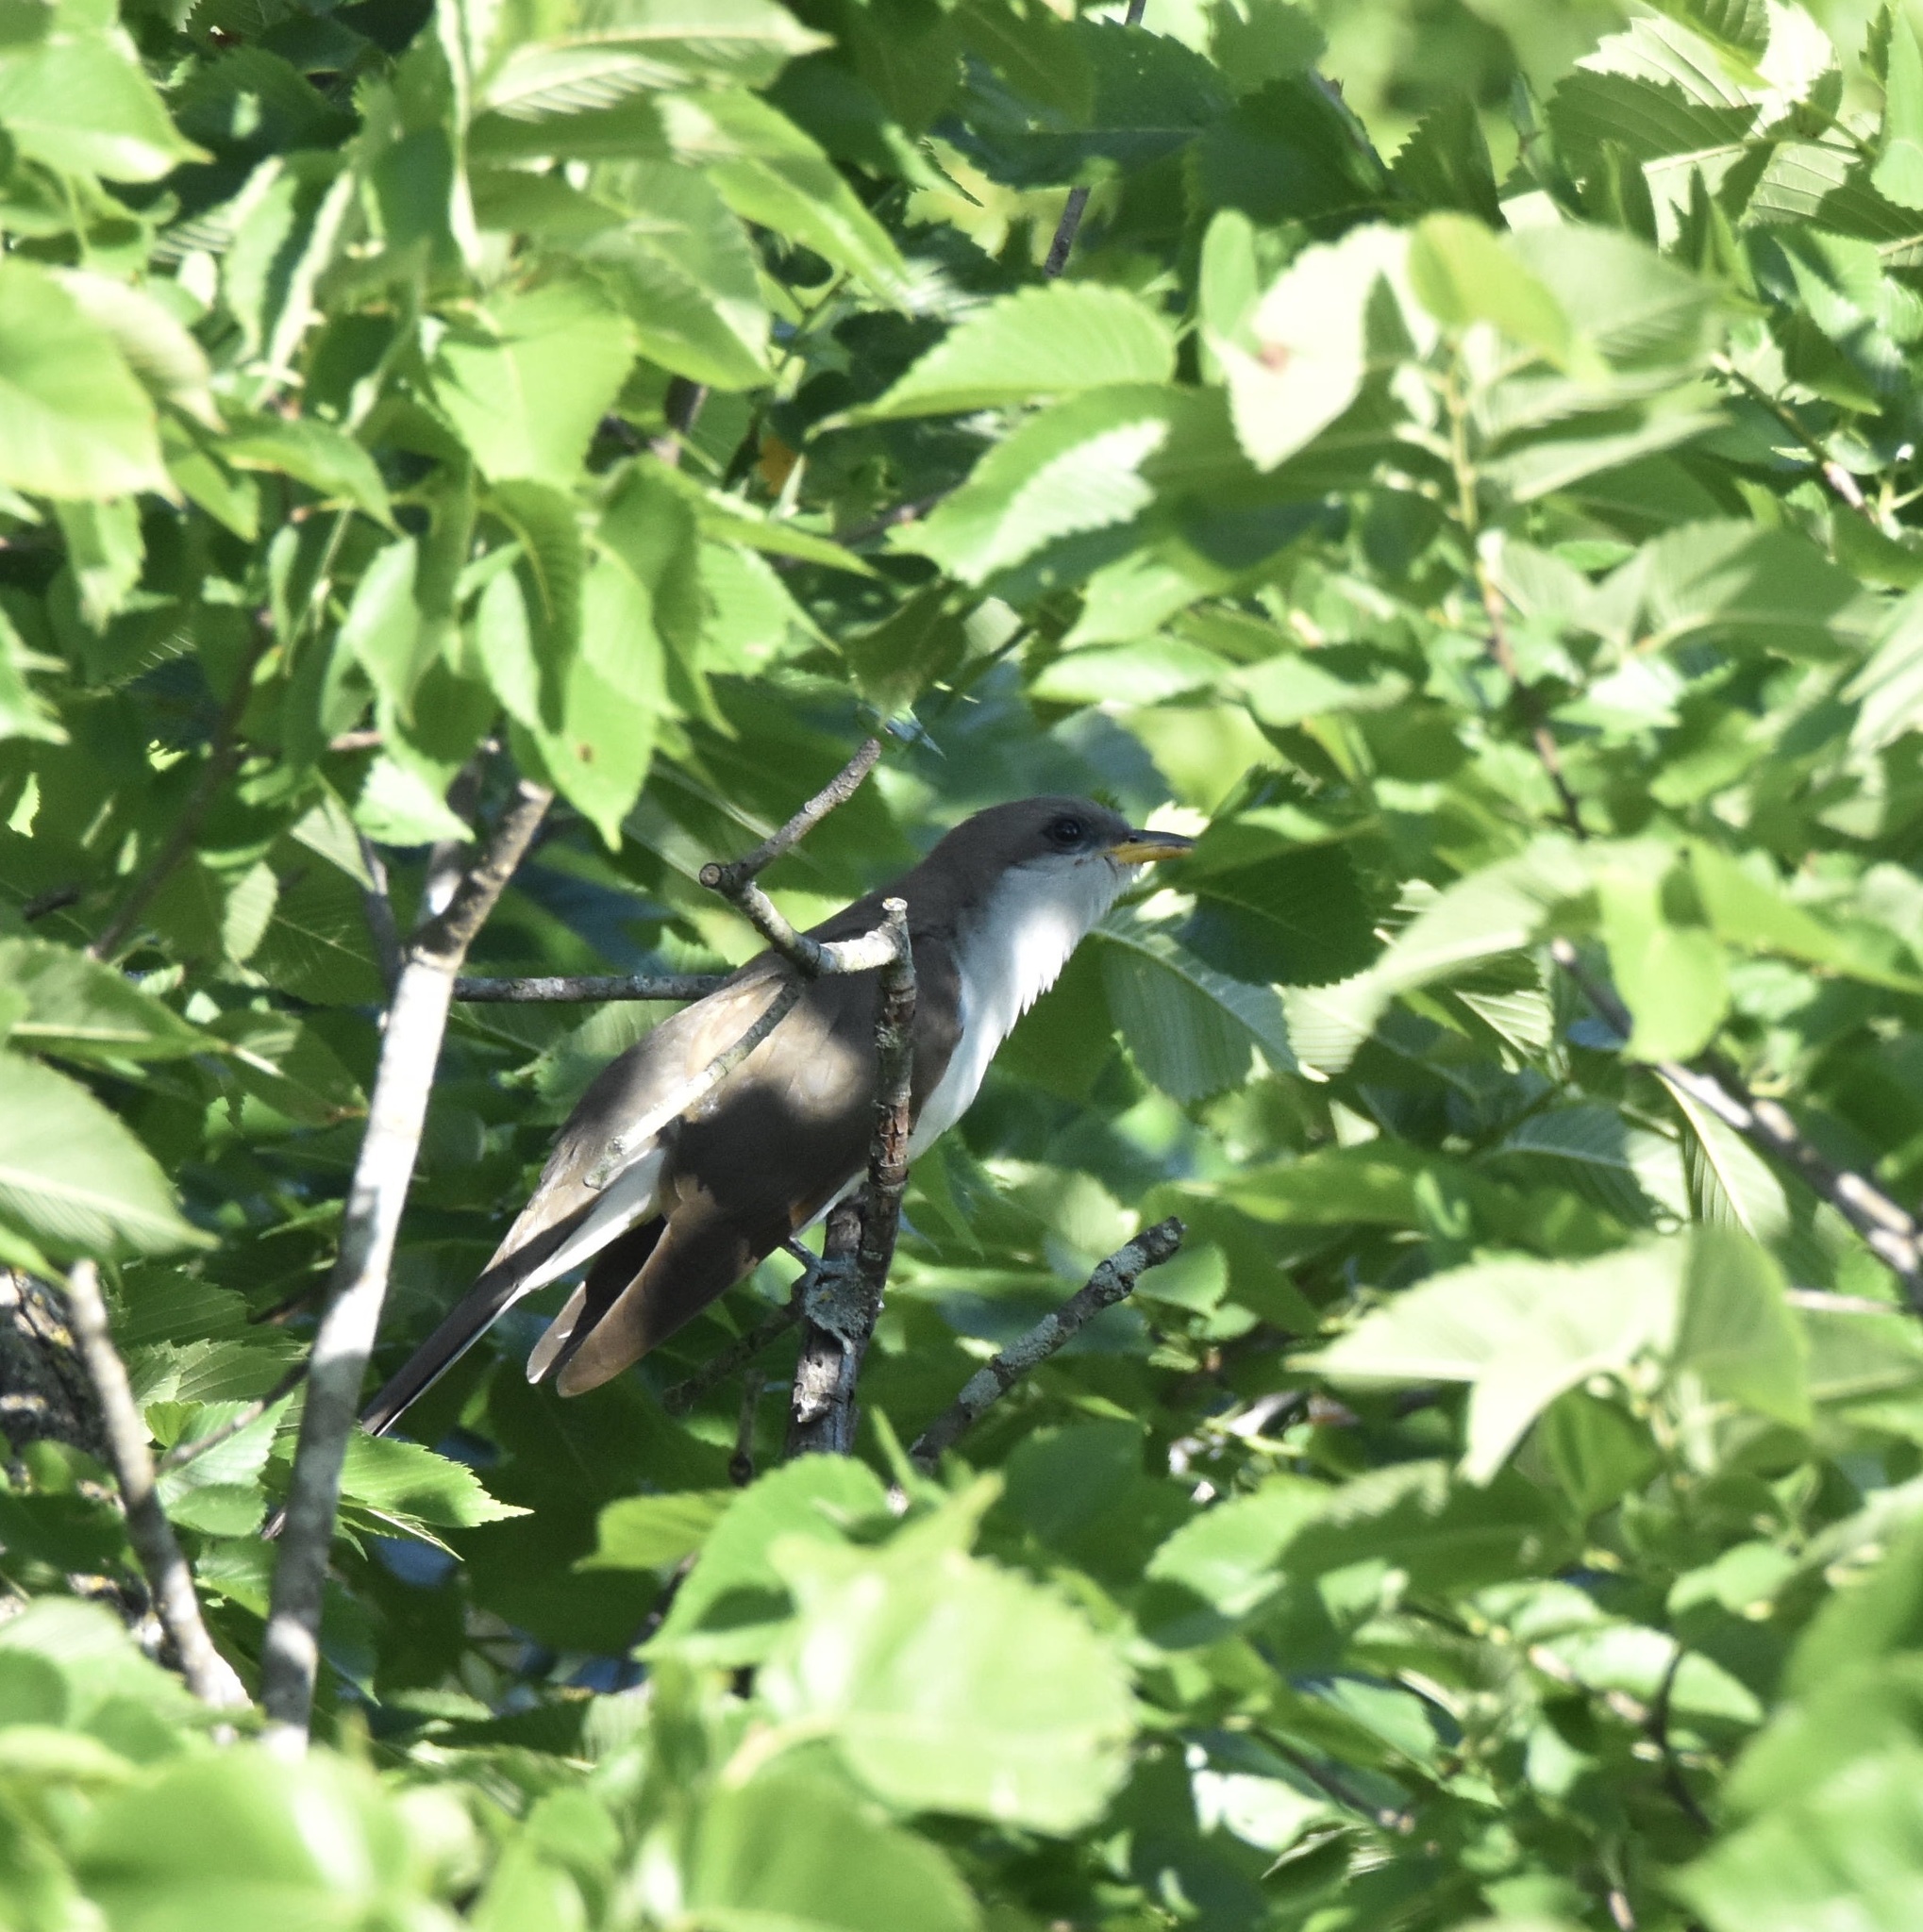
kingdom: Animalia
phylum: Chordata
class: Aves
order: Cuculiformes
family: Cuculidae
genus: Coccyzus
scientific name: Coccyzus americanus
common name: Yellow-billed cuckoo
